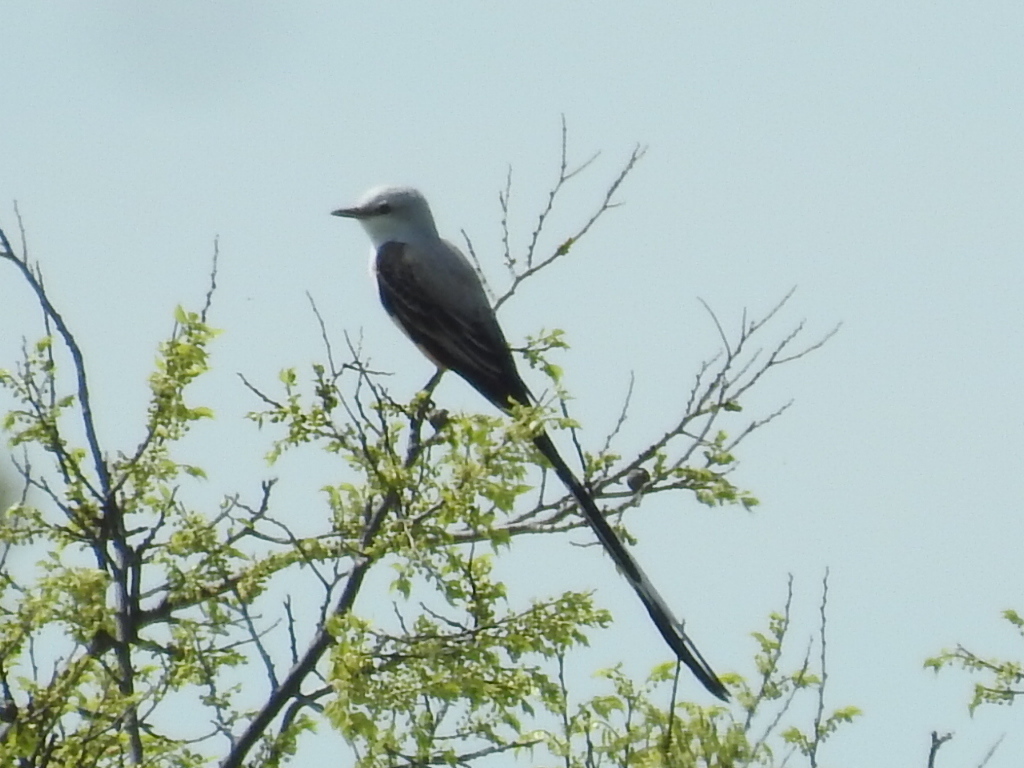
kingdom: Animalia
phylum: Chordata
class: Aves
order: Passeriformes
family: Tyrannidae
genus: Tyrannus
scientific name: Tyrannus forficatus
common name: Scissor-tailed flycatcher
